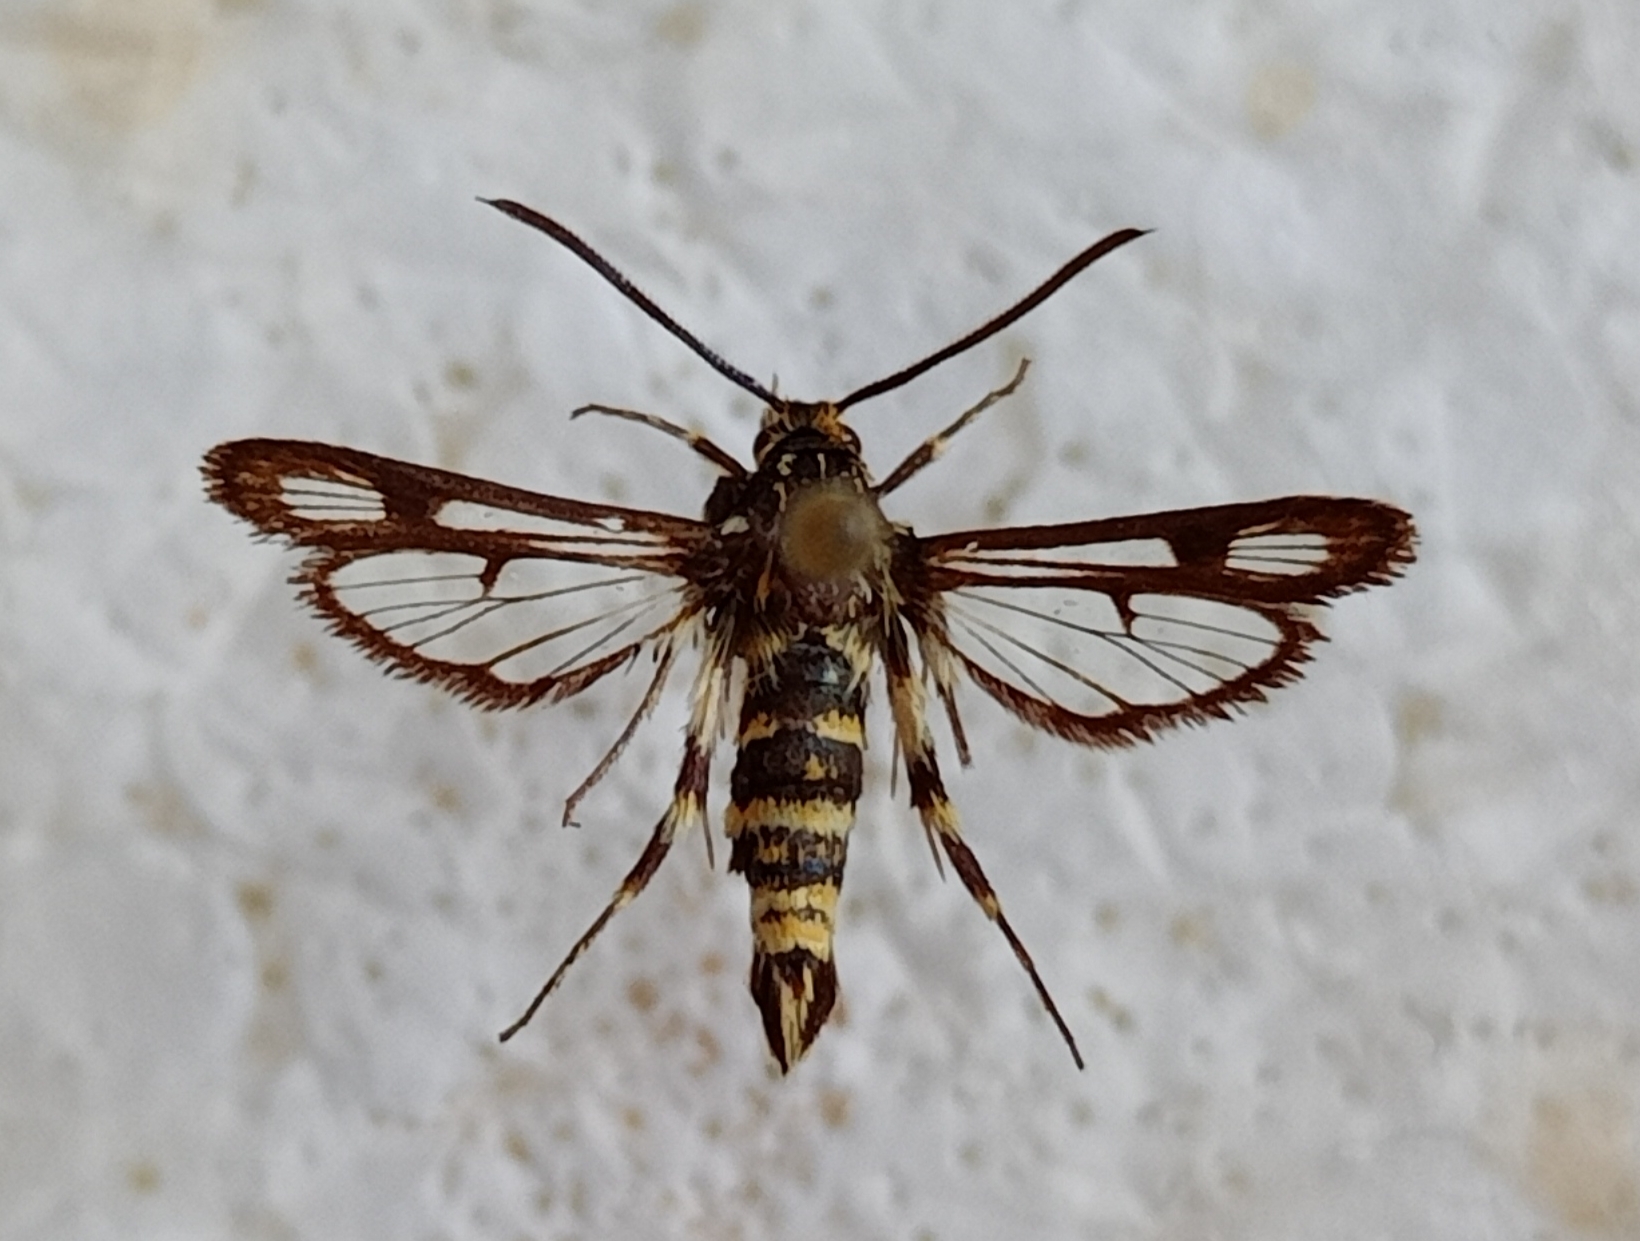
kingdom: Animalia
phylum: Arthropoda
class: Insecta
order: Lepidoptera
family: Sesiidae
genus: Chamaesphecia
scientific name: Chamaesphecia annellata
